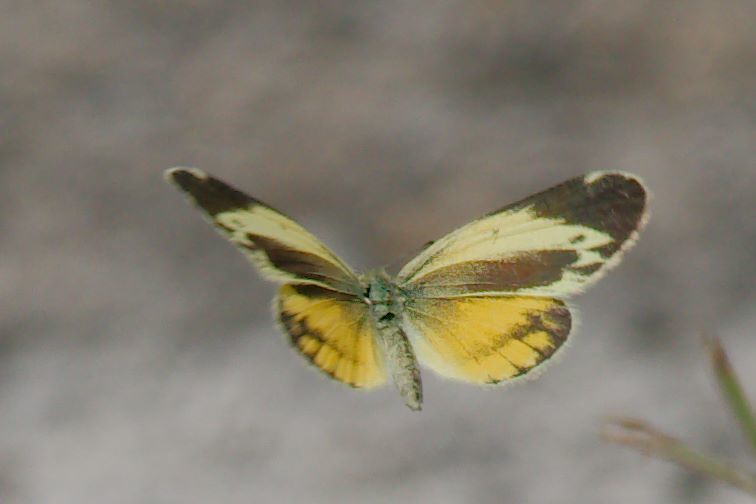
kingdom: Animalia
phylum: Arthropoda
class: Insecta
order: Lepidoptera
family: Pieridae
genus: Nathalis
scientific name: Nathalis iole
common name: Dainty sulphur
